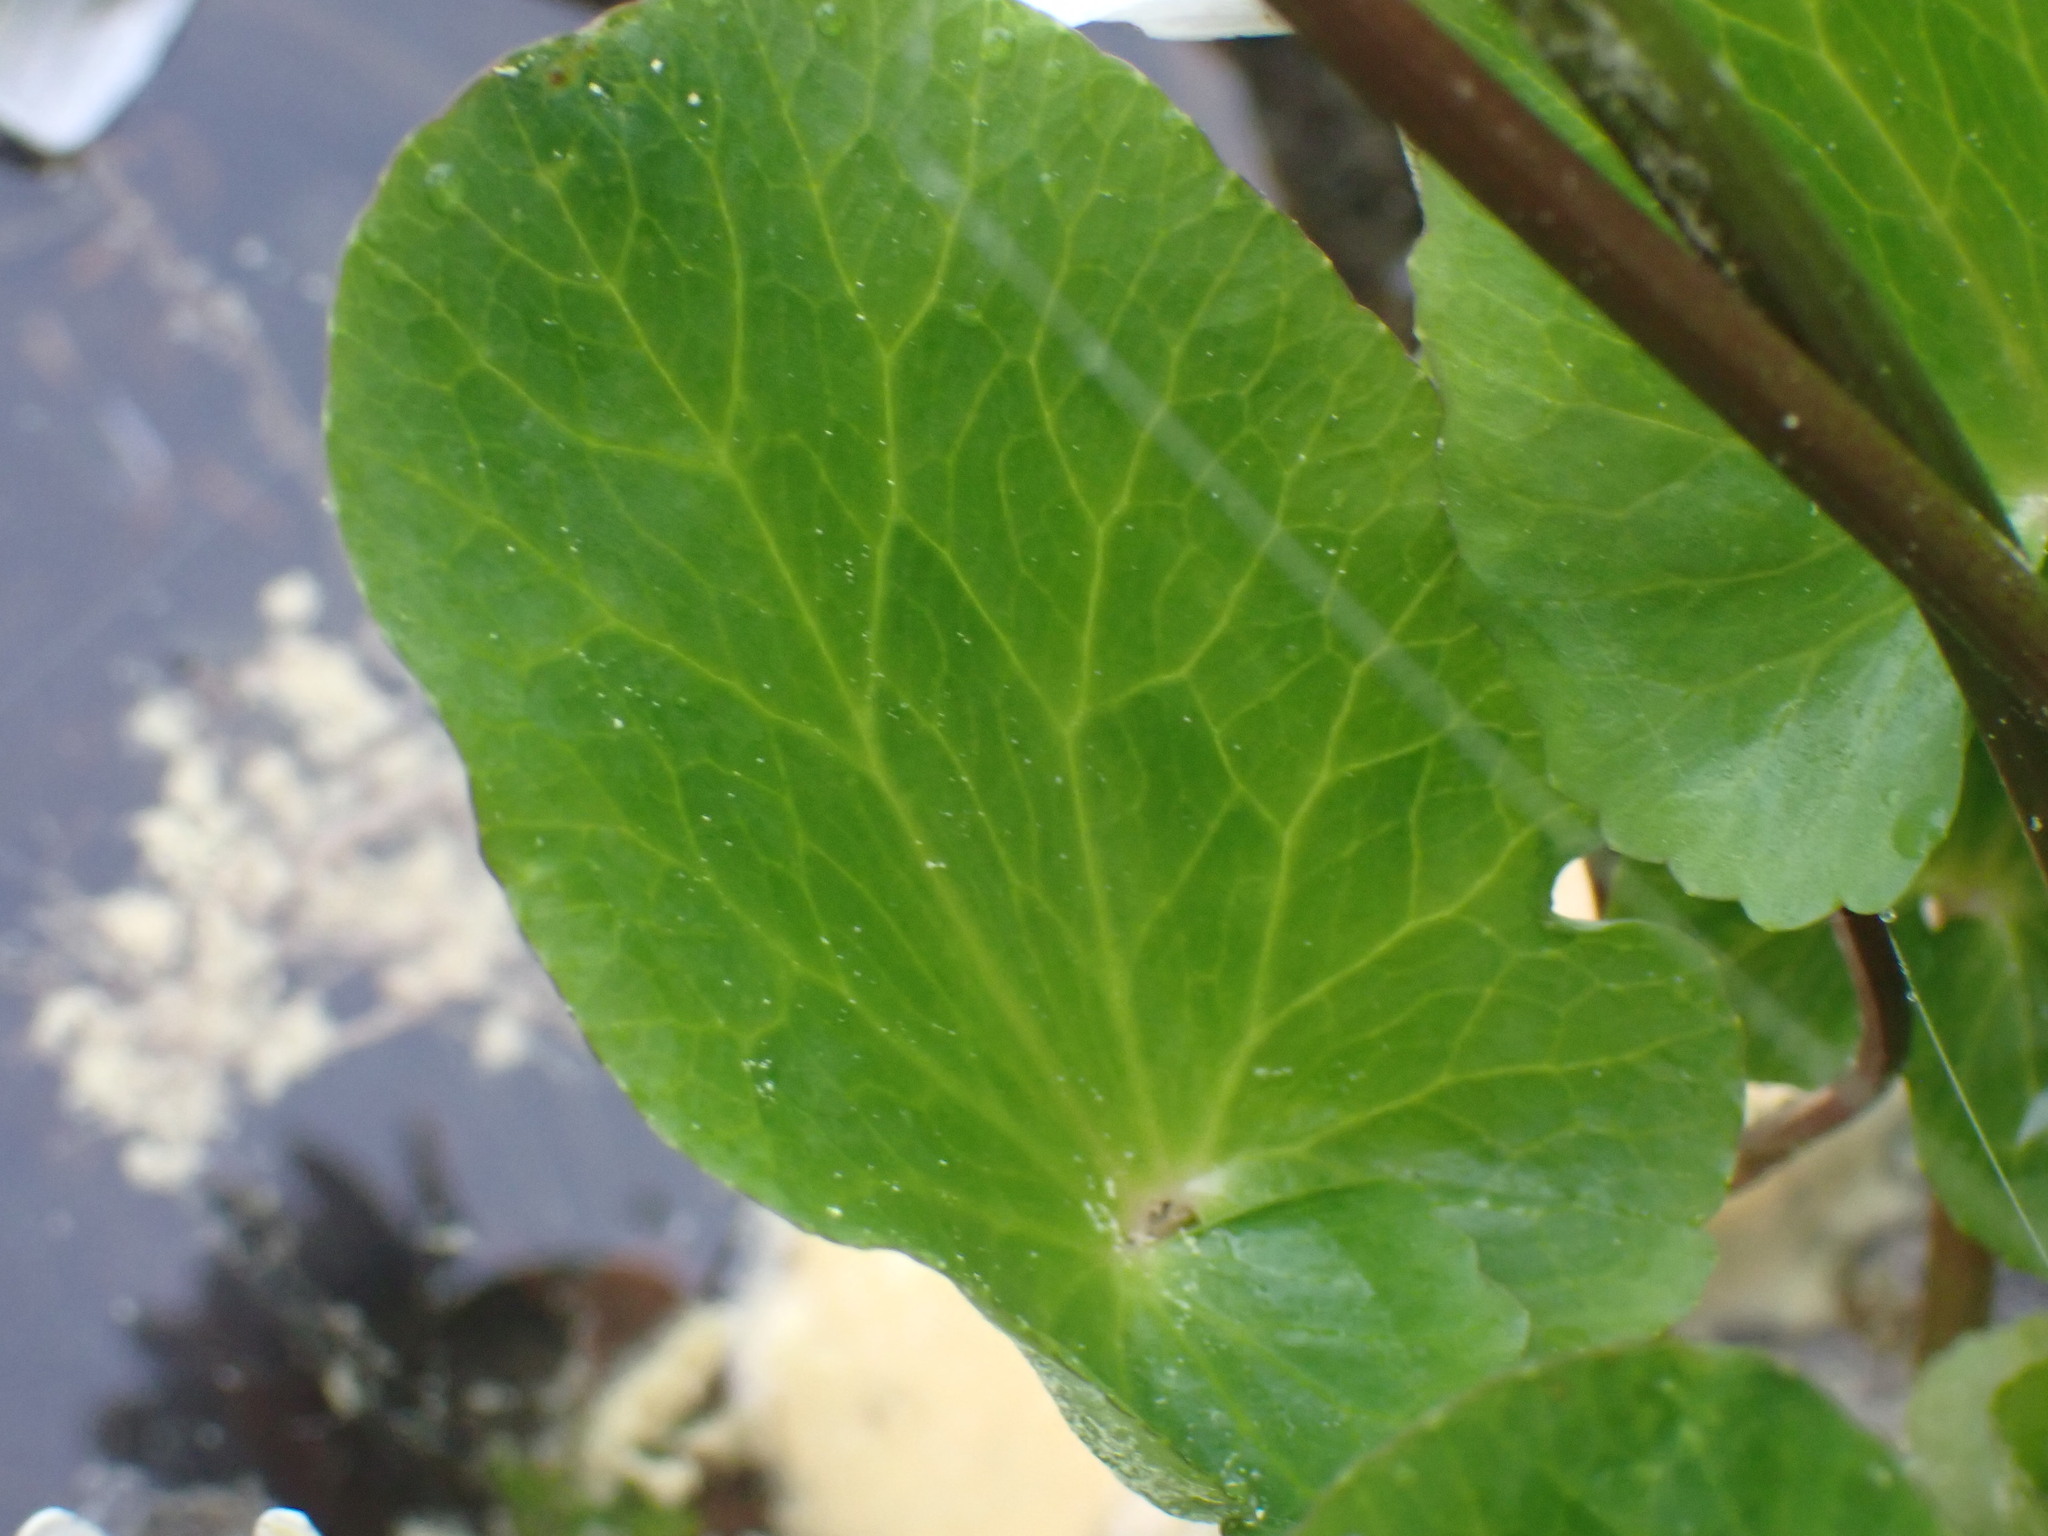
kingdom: Plantae
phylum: Tracheophyta
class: Magnoliopsida
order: Ranunculales
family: Ranunculaceae
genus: Caltha
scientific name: Caltha leptosepala
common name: Elkslip
